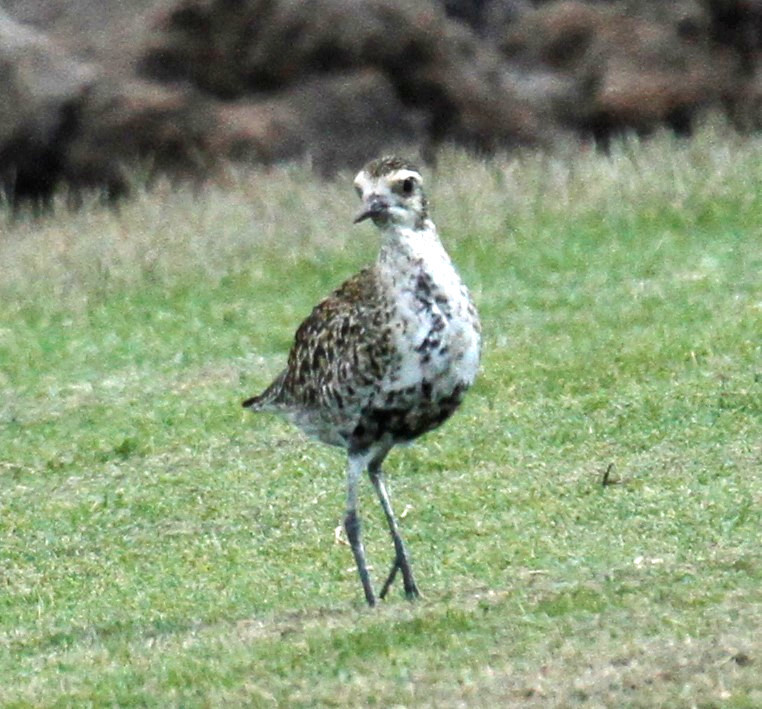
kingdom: Animalia
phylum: Chordata
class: Aves
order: Charadriiformes
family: Charadriidae
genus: Pluvialis
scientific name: Pluvialis fulva
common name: Pacific golden plover
